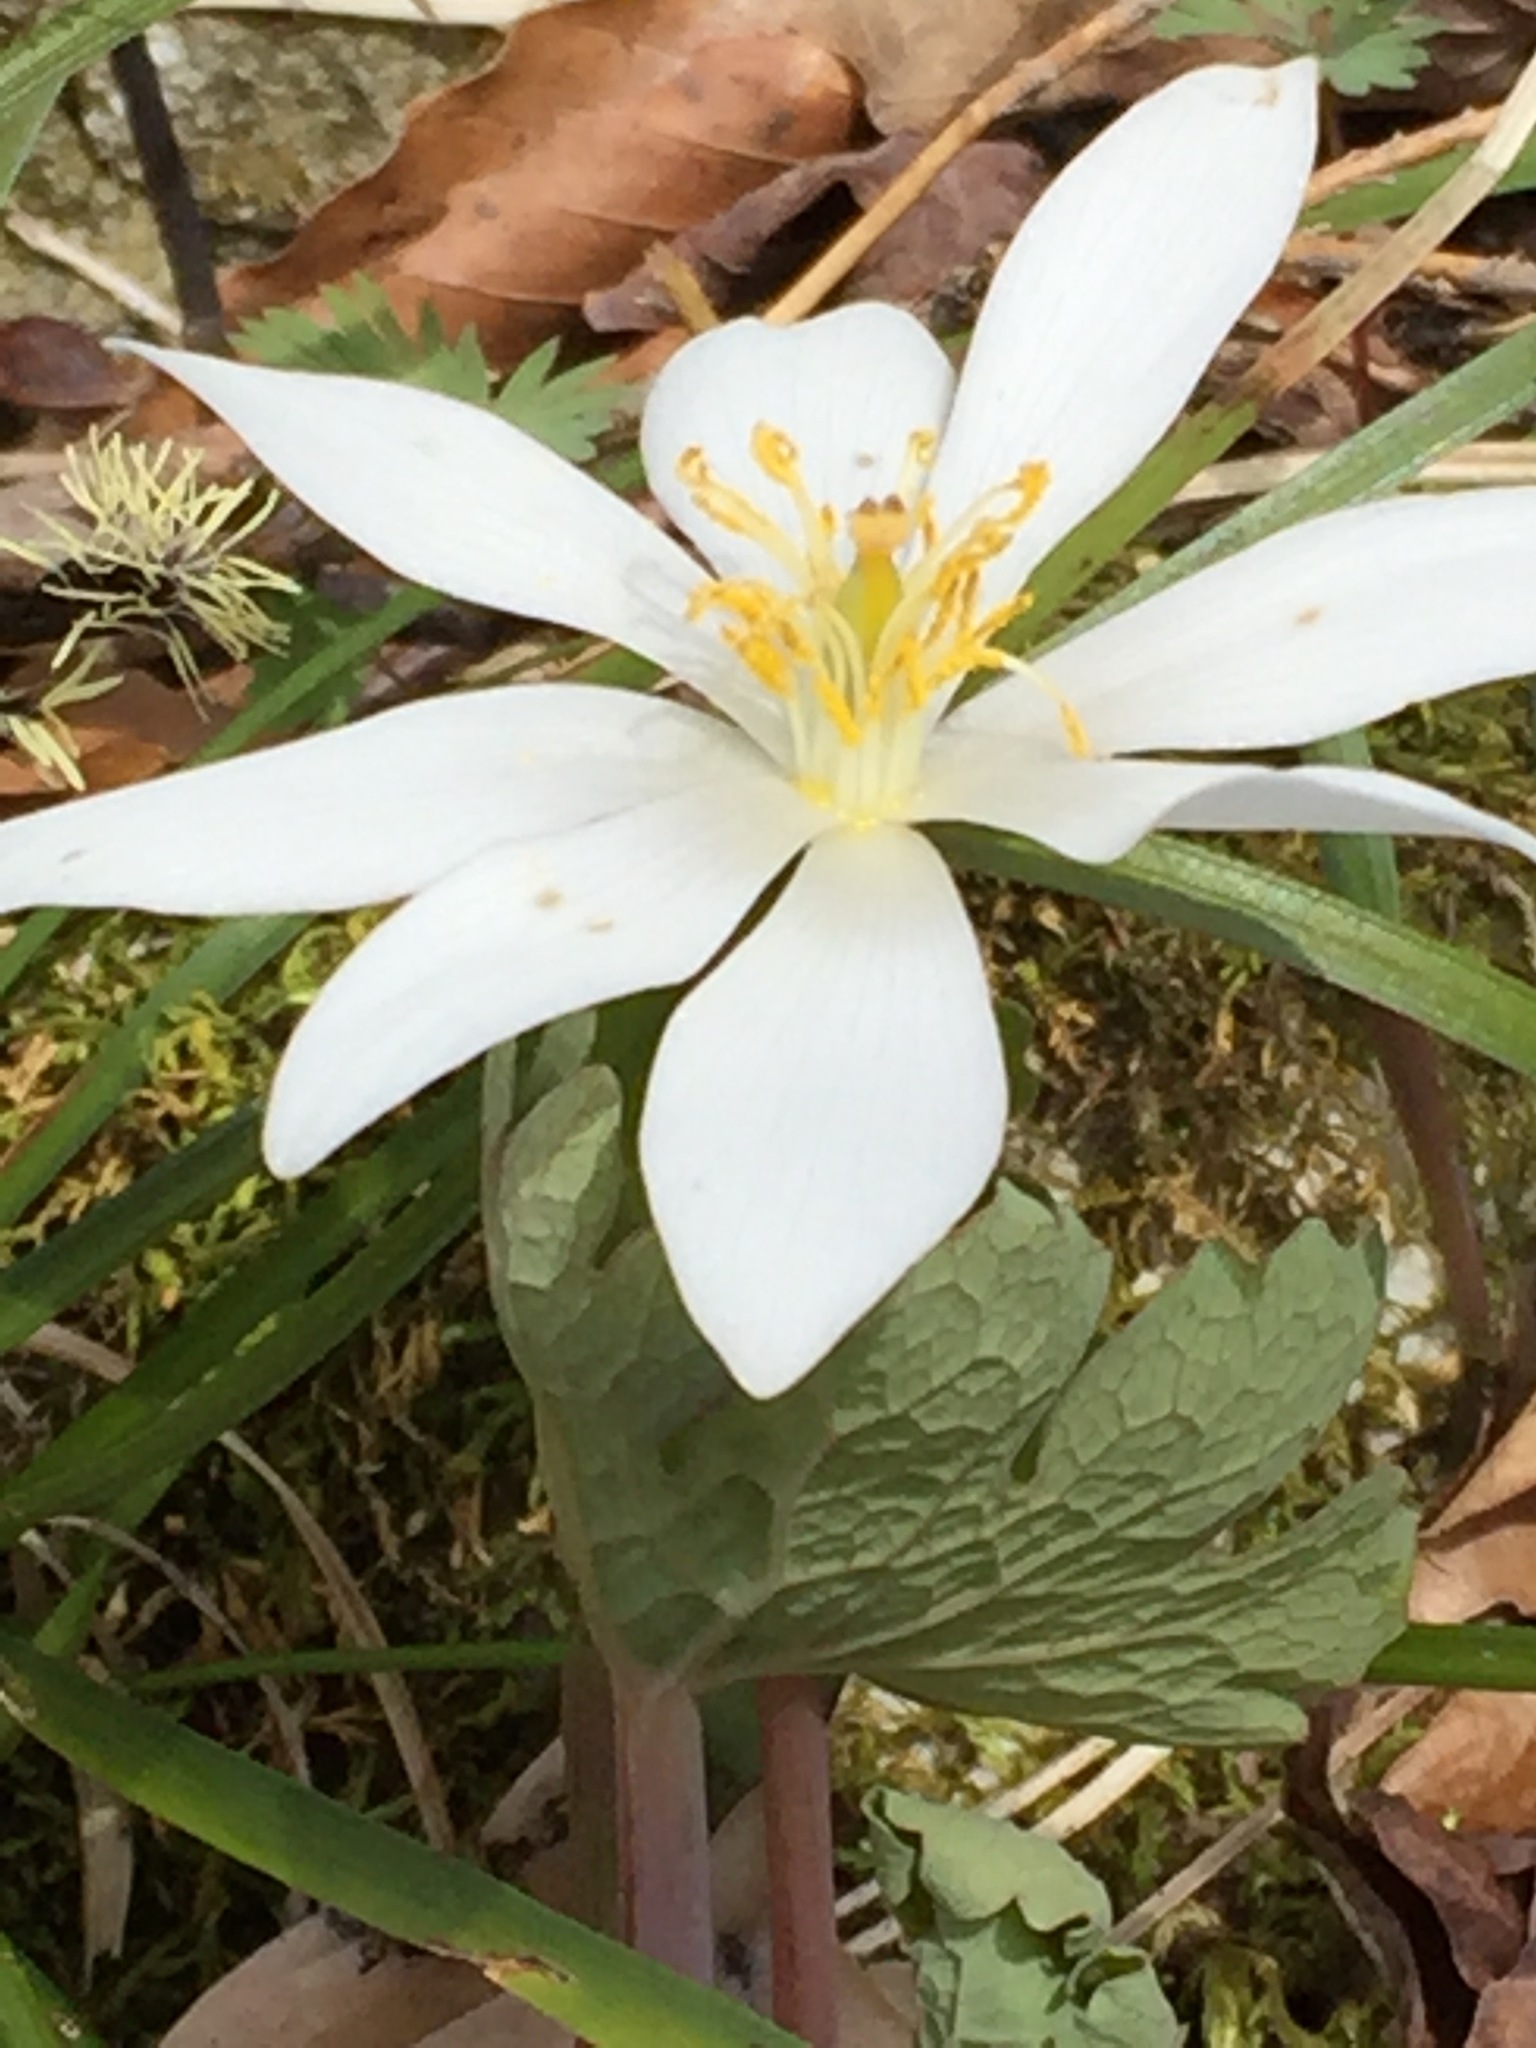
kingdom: Plantae
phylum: Tracheophyta
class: Magnoliopsida
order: Ranunculales
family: Papaveraceae
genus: Sanguinaria
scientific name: Sanguinaria canadensis
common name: Bloodroot
